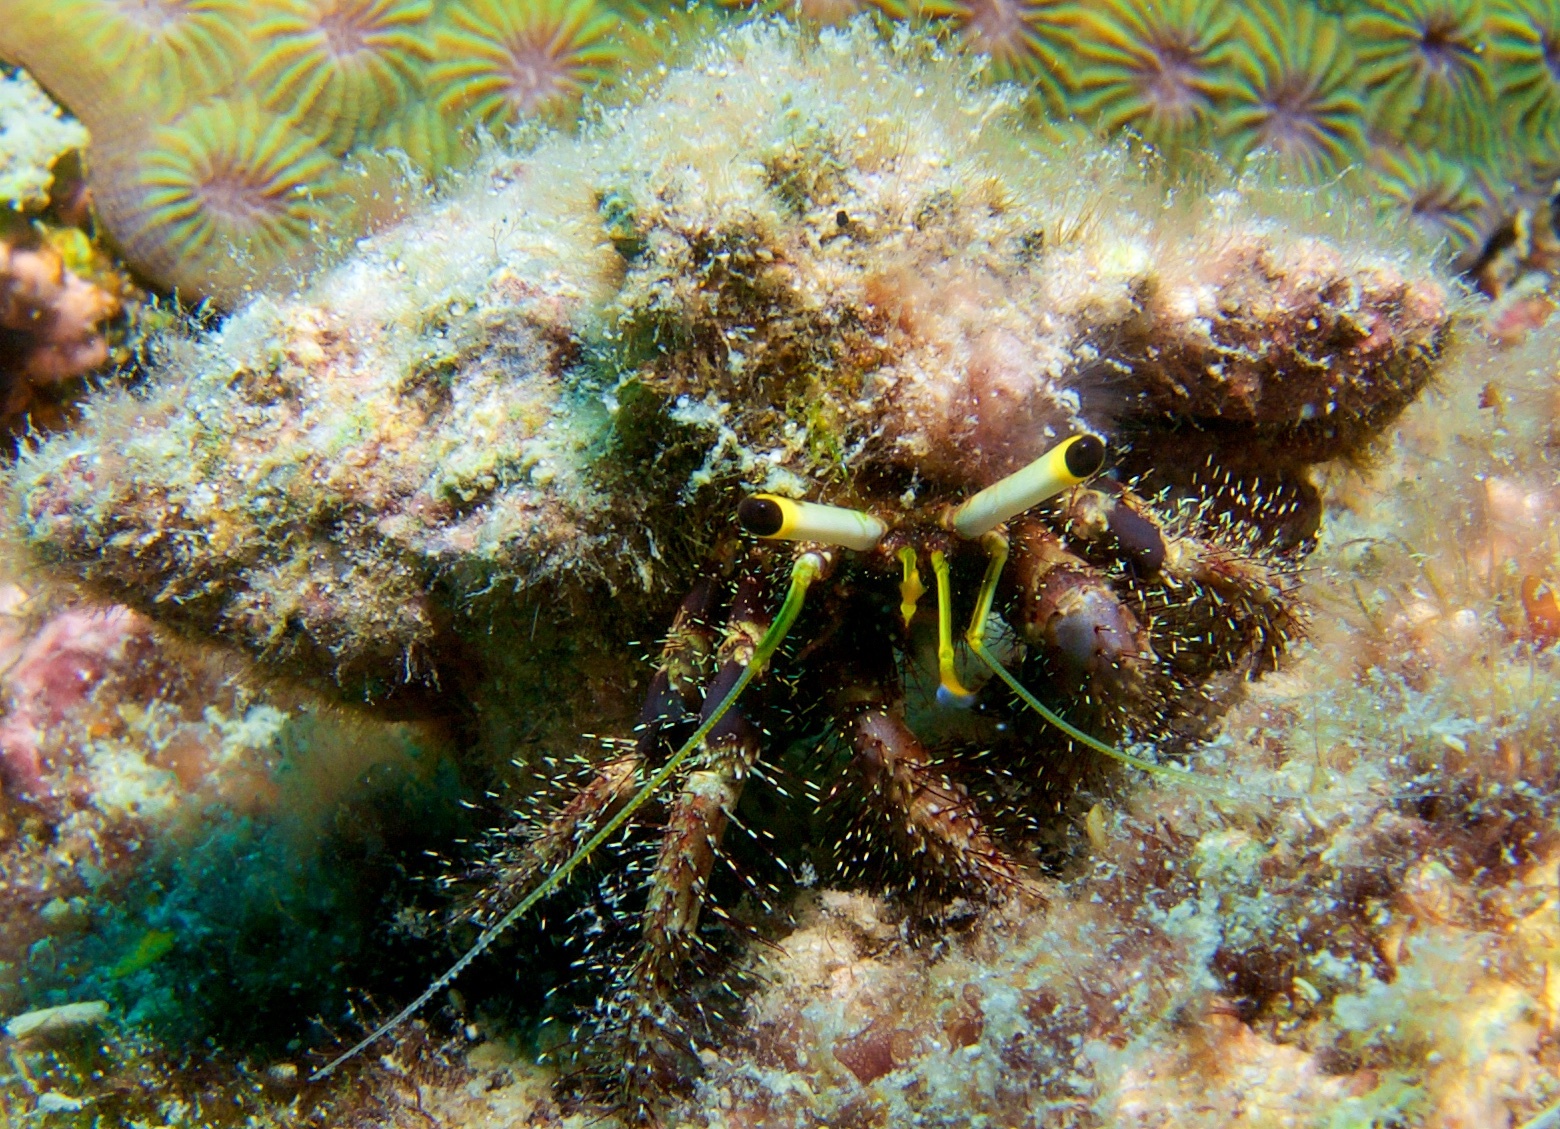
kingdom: Animalia
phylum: Arthropoda
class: Malacostraca
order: Decapoda
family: Diogenidae
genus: Dardanus
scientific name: Dardanus lagopodes
